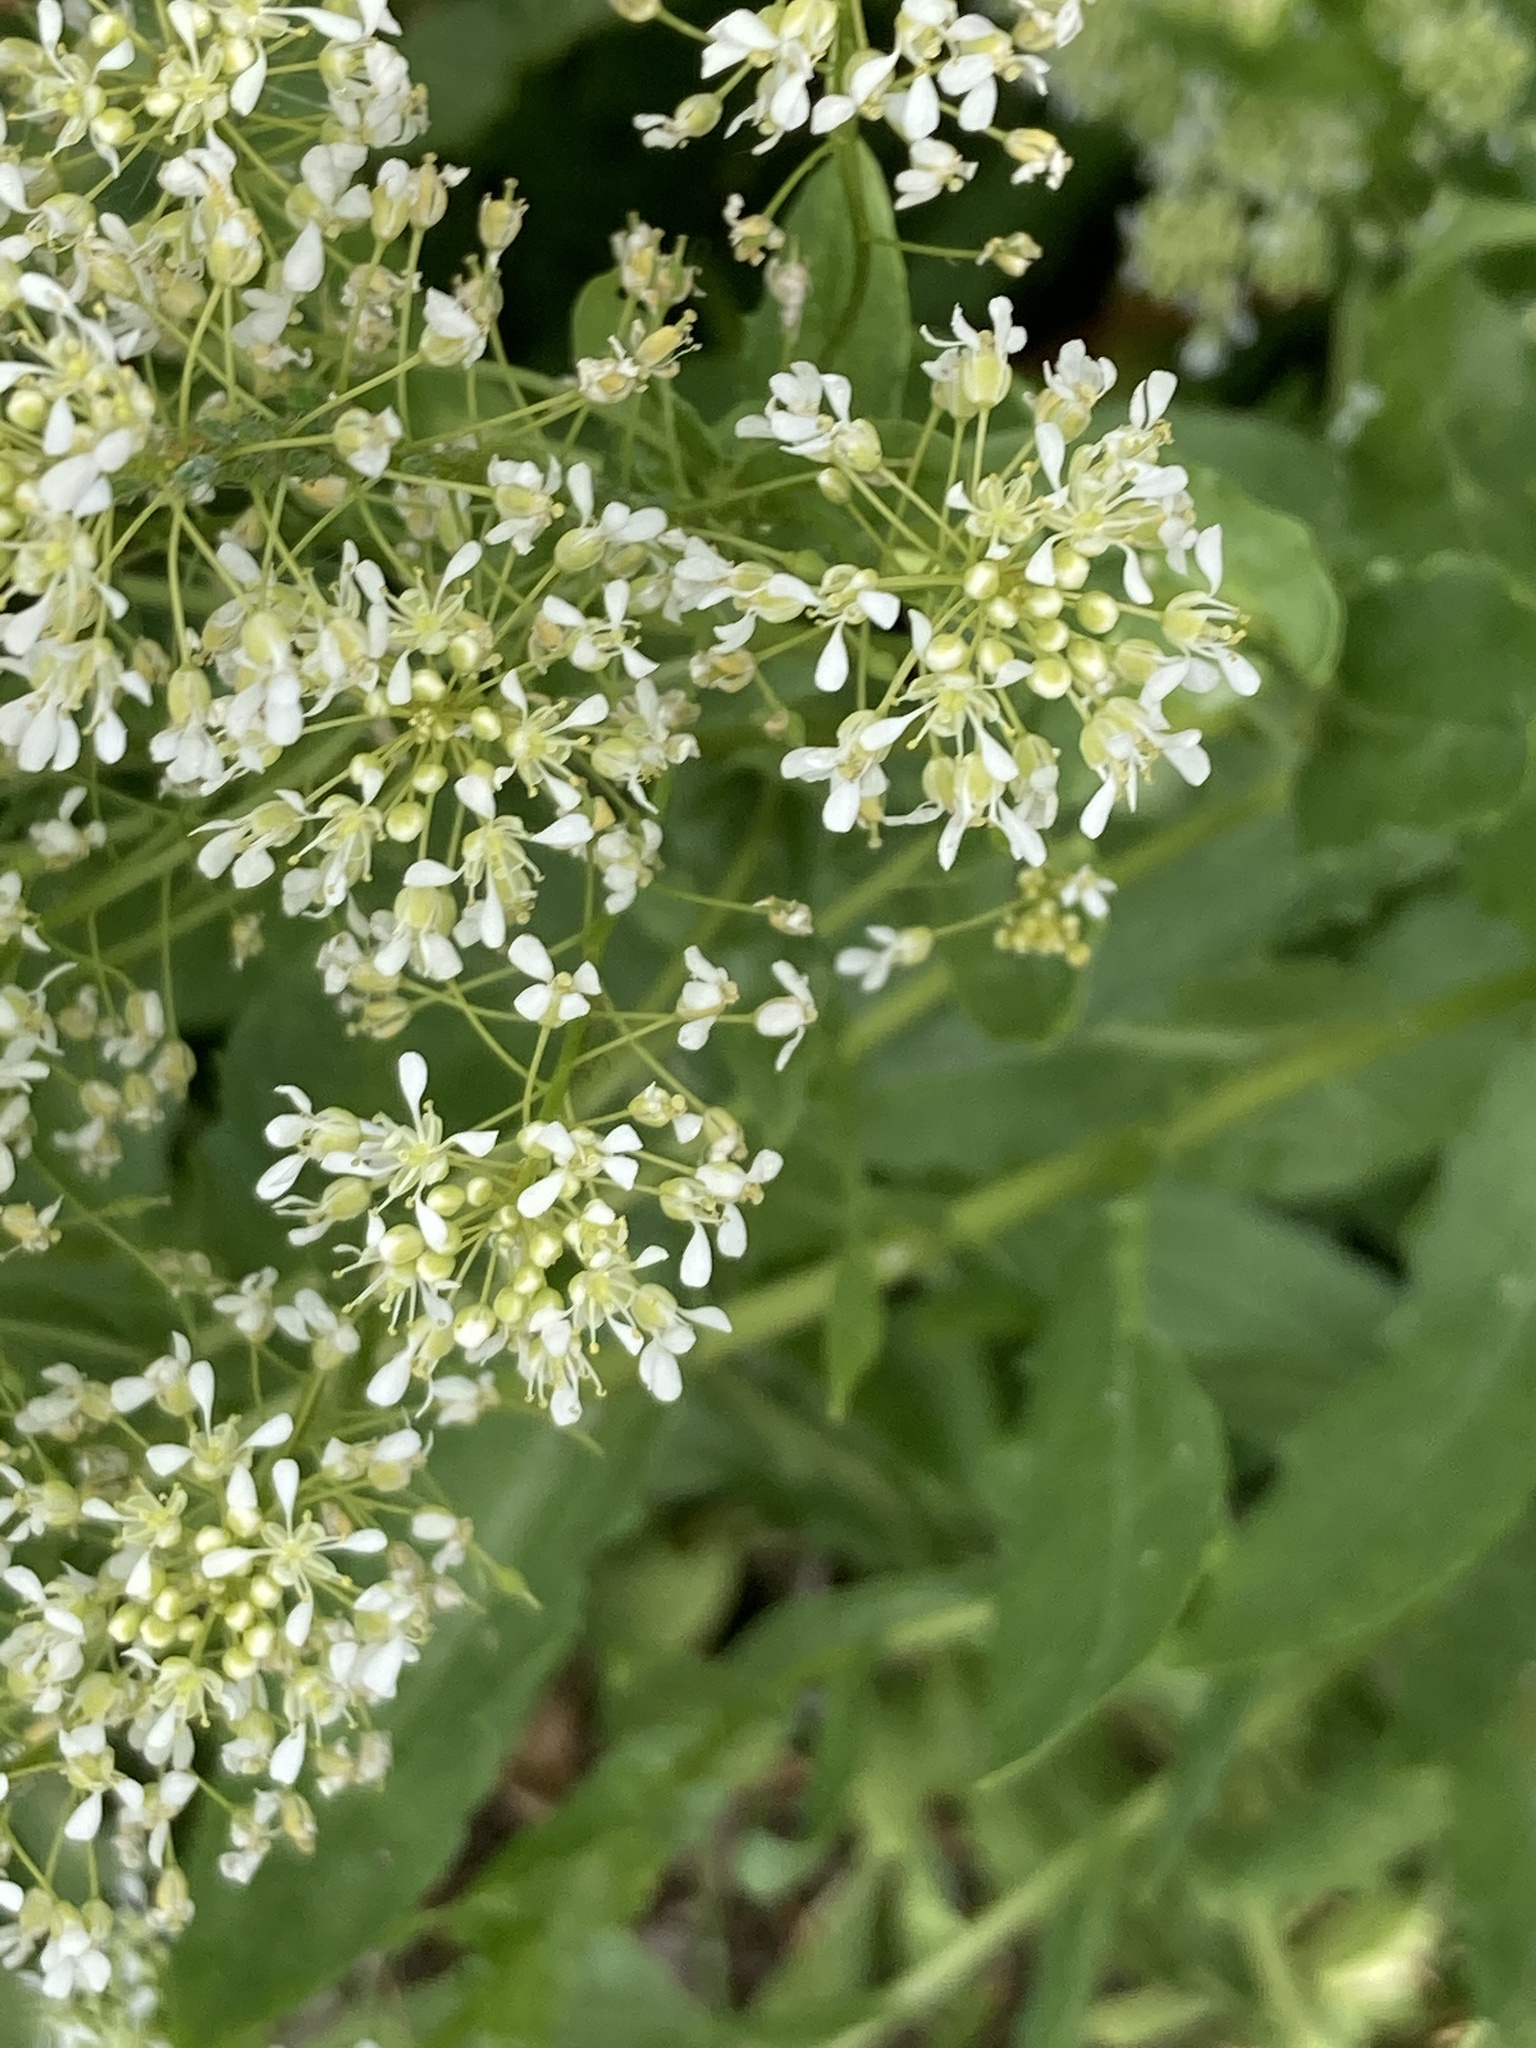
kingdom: Plantae
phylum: Tracheophyta
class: Magnoliopsida
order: Brassicales
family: Brassicaceae
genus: Lepidium
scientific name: Lepidium draba
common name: Hoary cress
